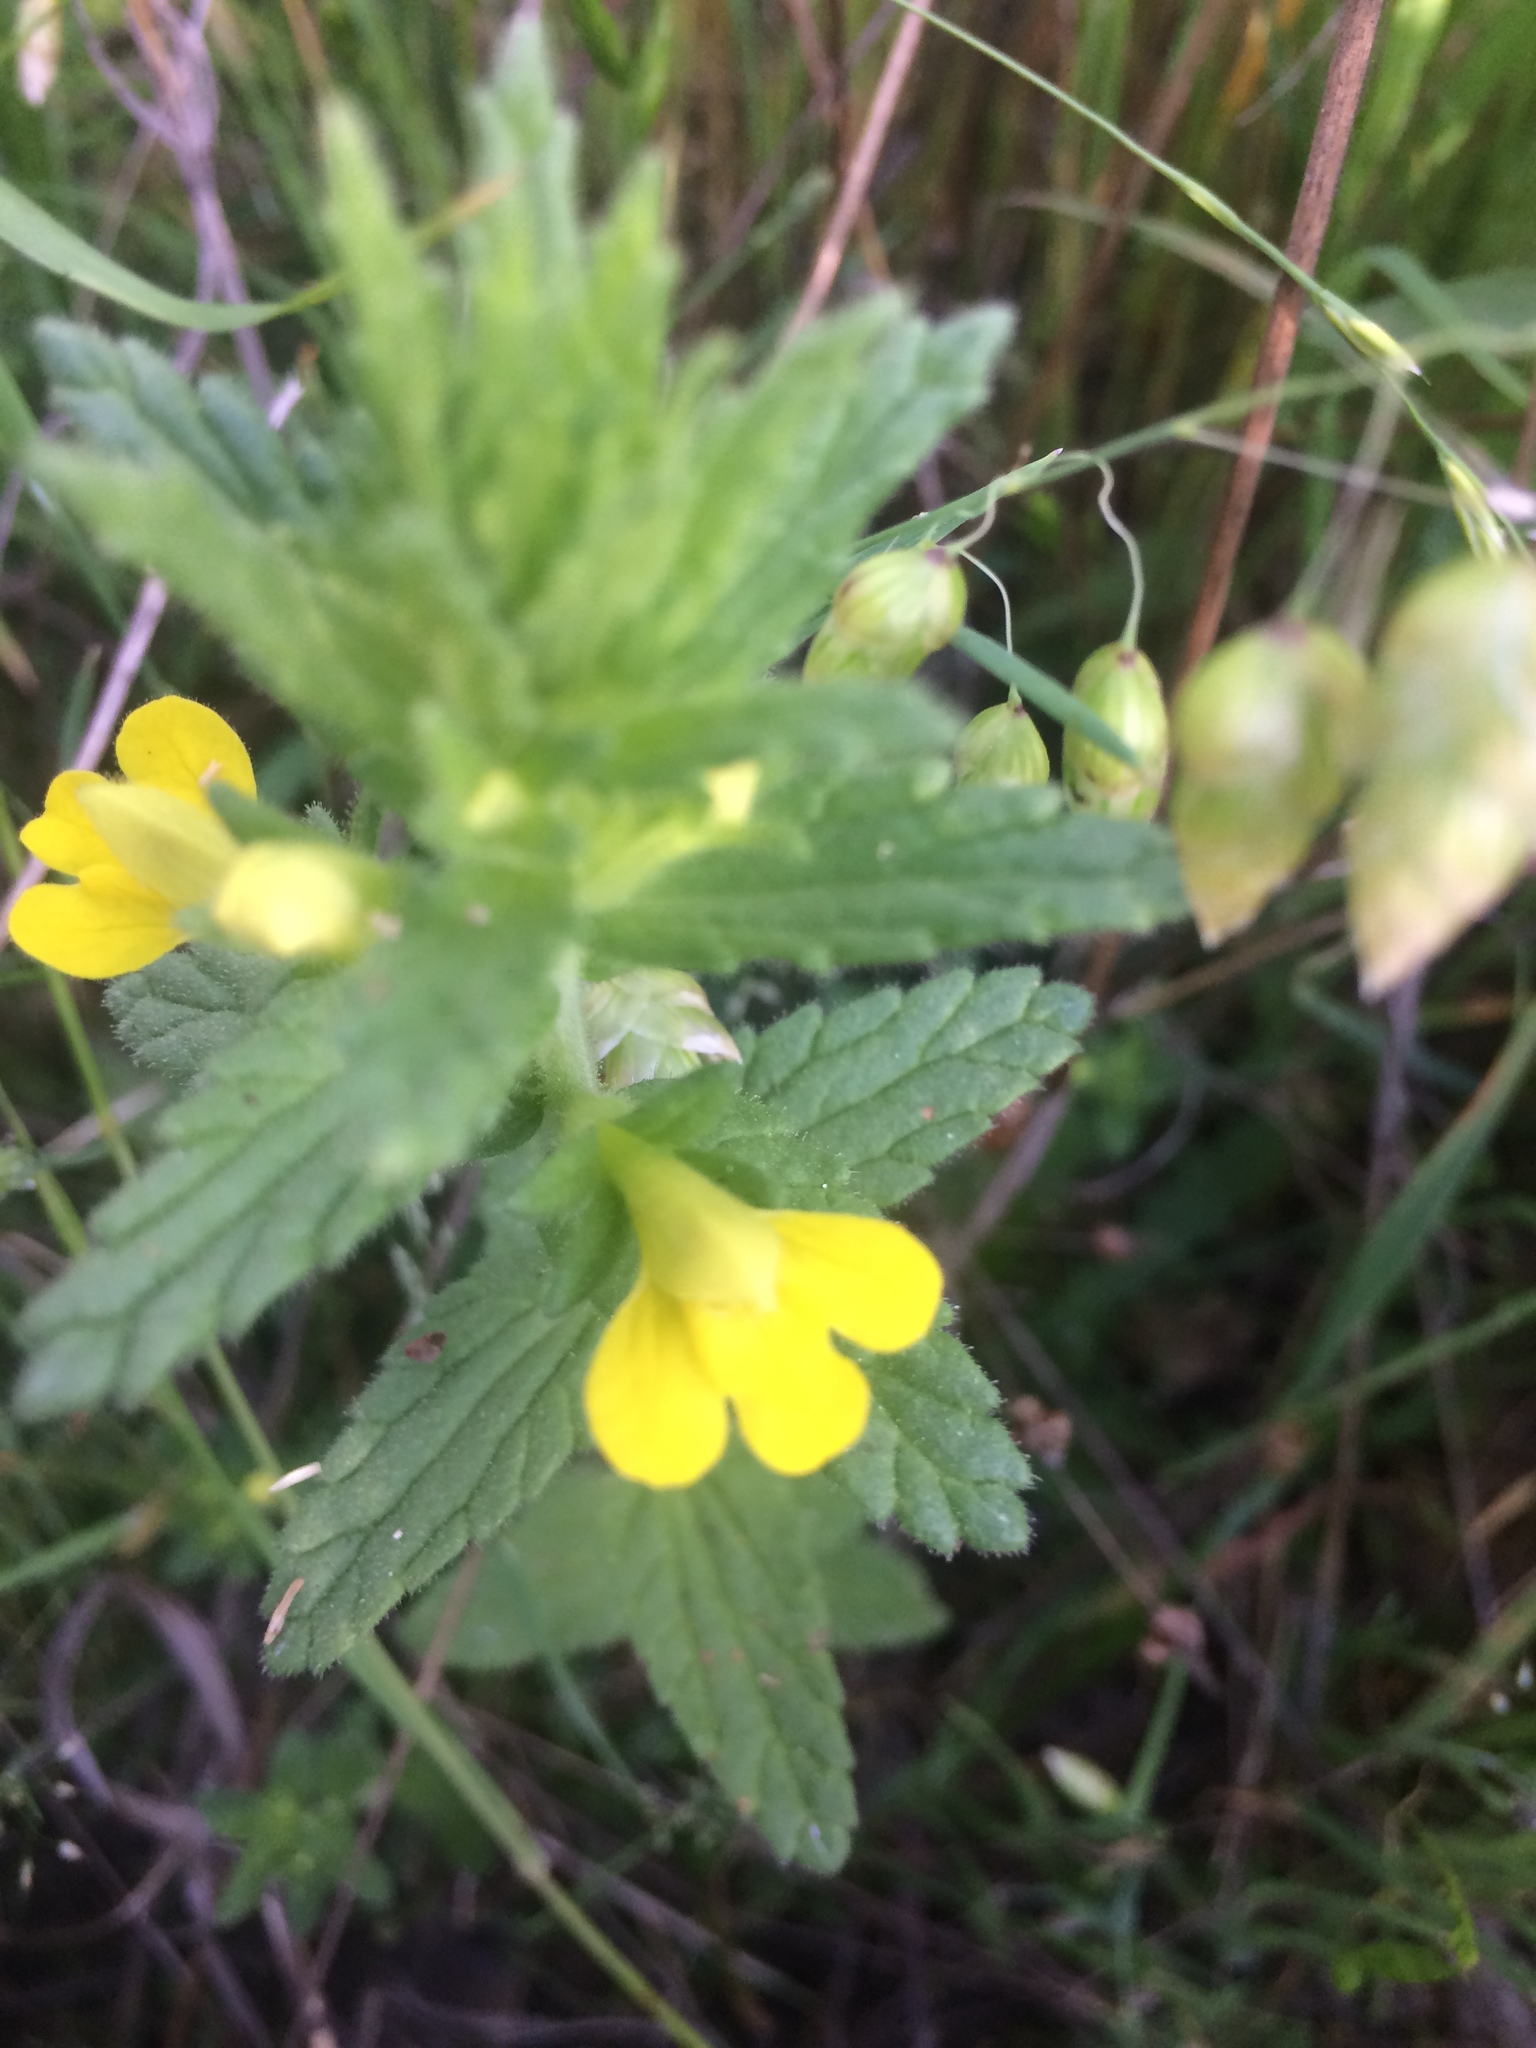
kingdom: Plantae
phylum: Tracheophyta
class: Magnoliopsida
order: Lamiales
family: Orobanchaceae
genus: Bellardia
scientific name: Bellardia viscosa
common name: Sticky parentucellia
